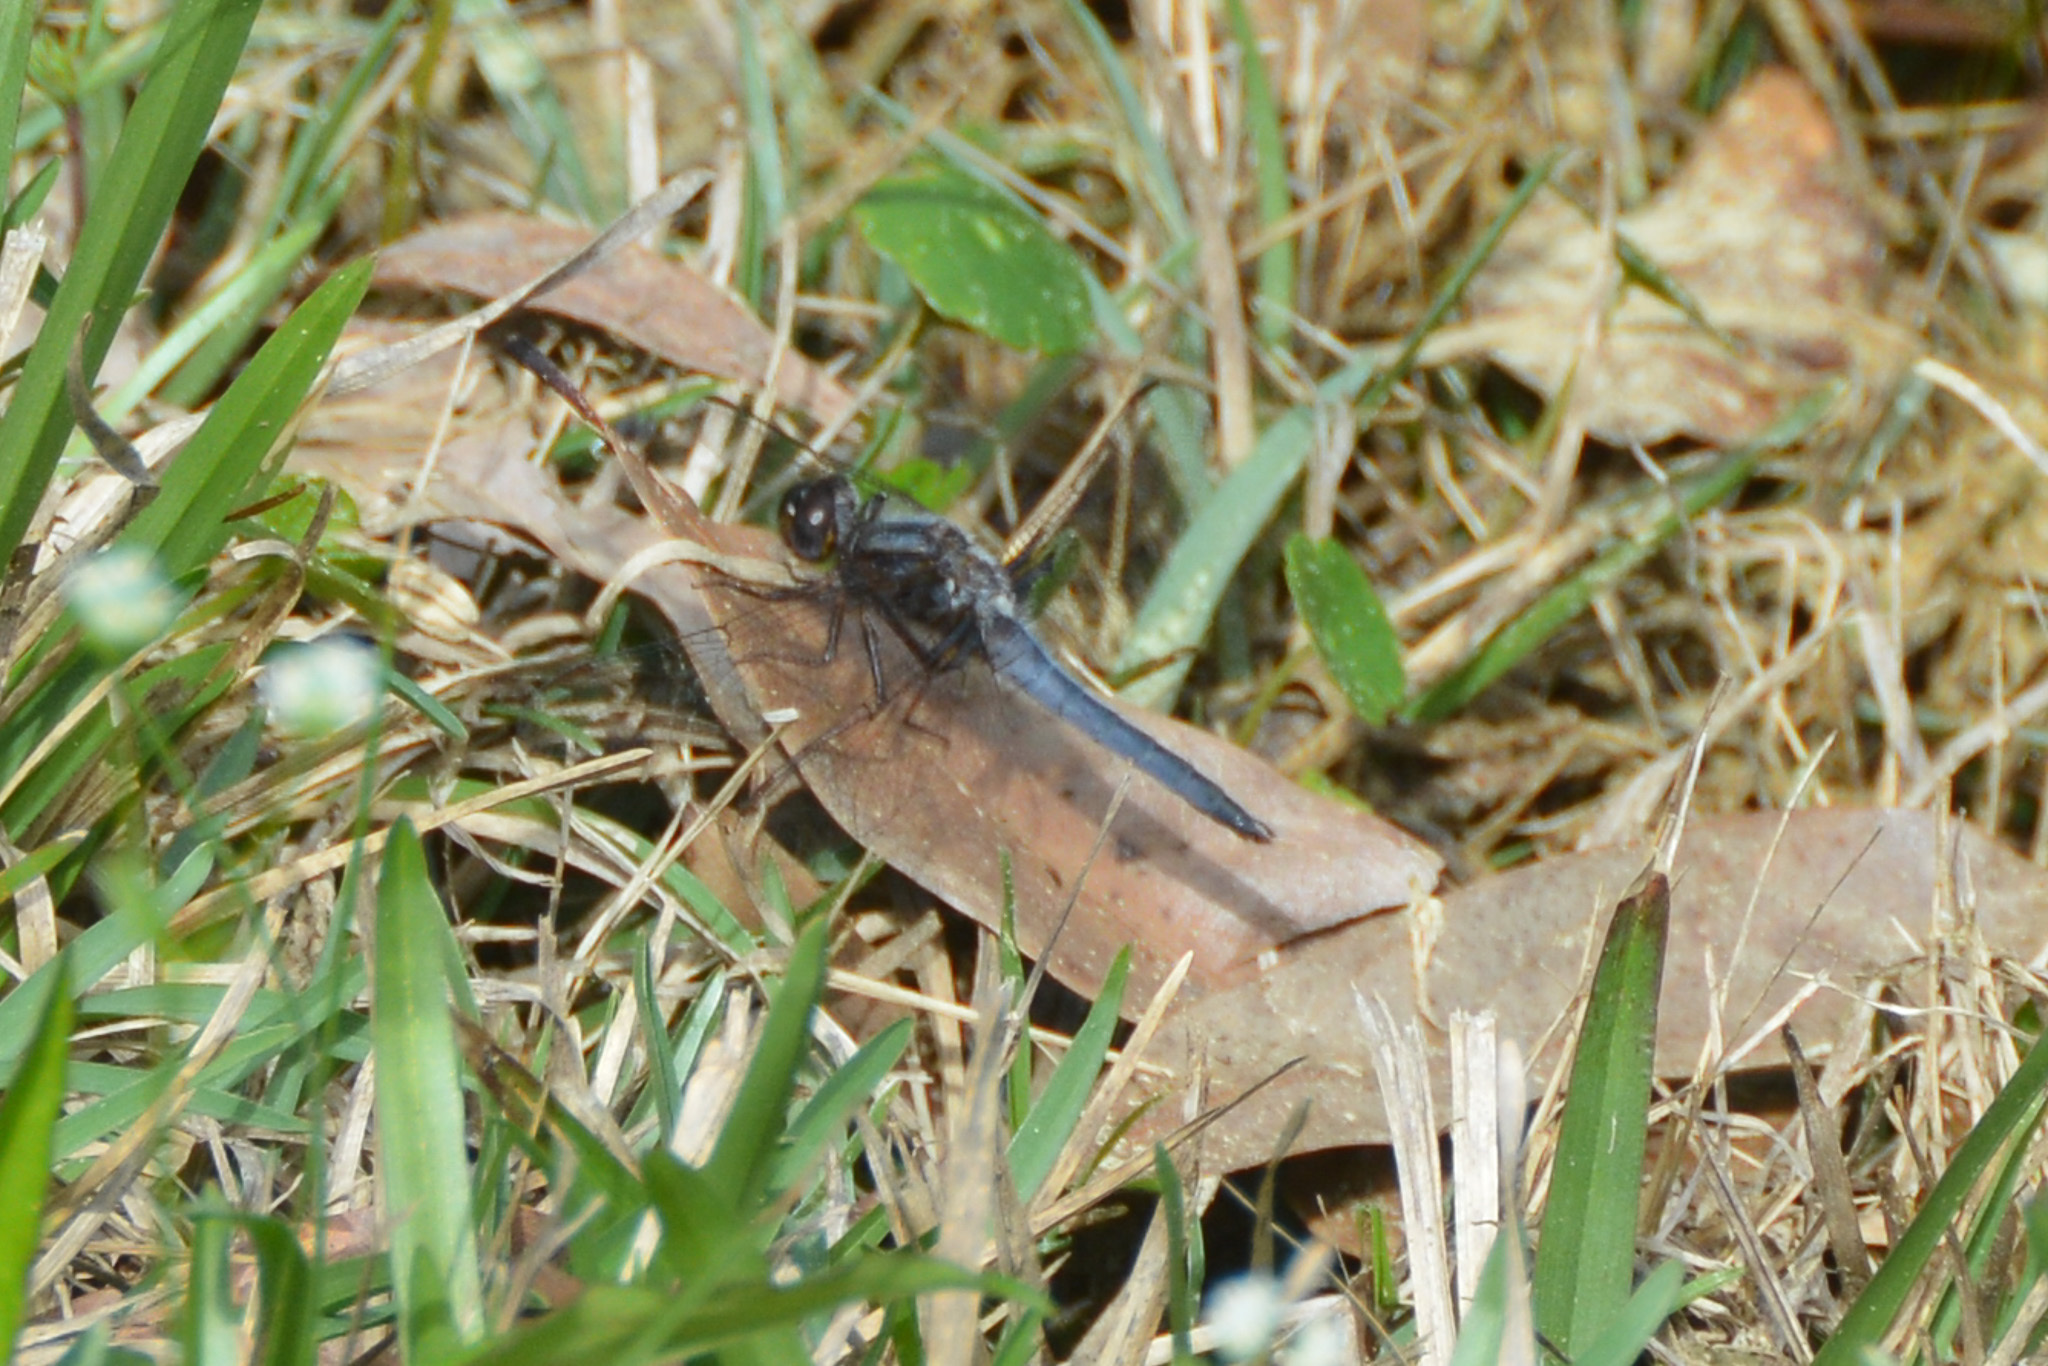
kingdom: Animalia
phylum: Arthropoda
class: Insecta
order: Odonata
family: Libellulidae
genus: Ladona
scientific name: Ladona deplanata
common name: Blue corporal
